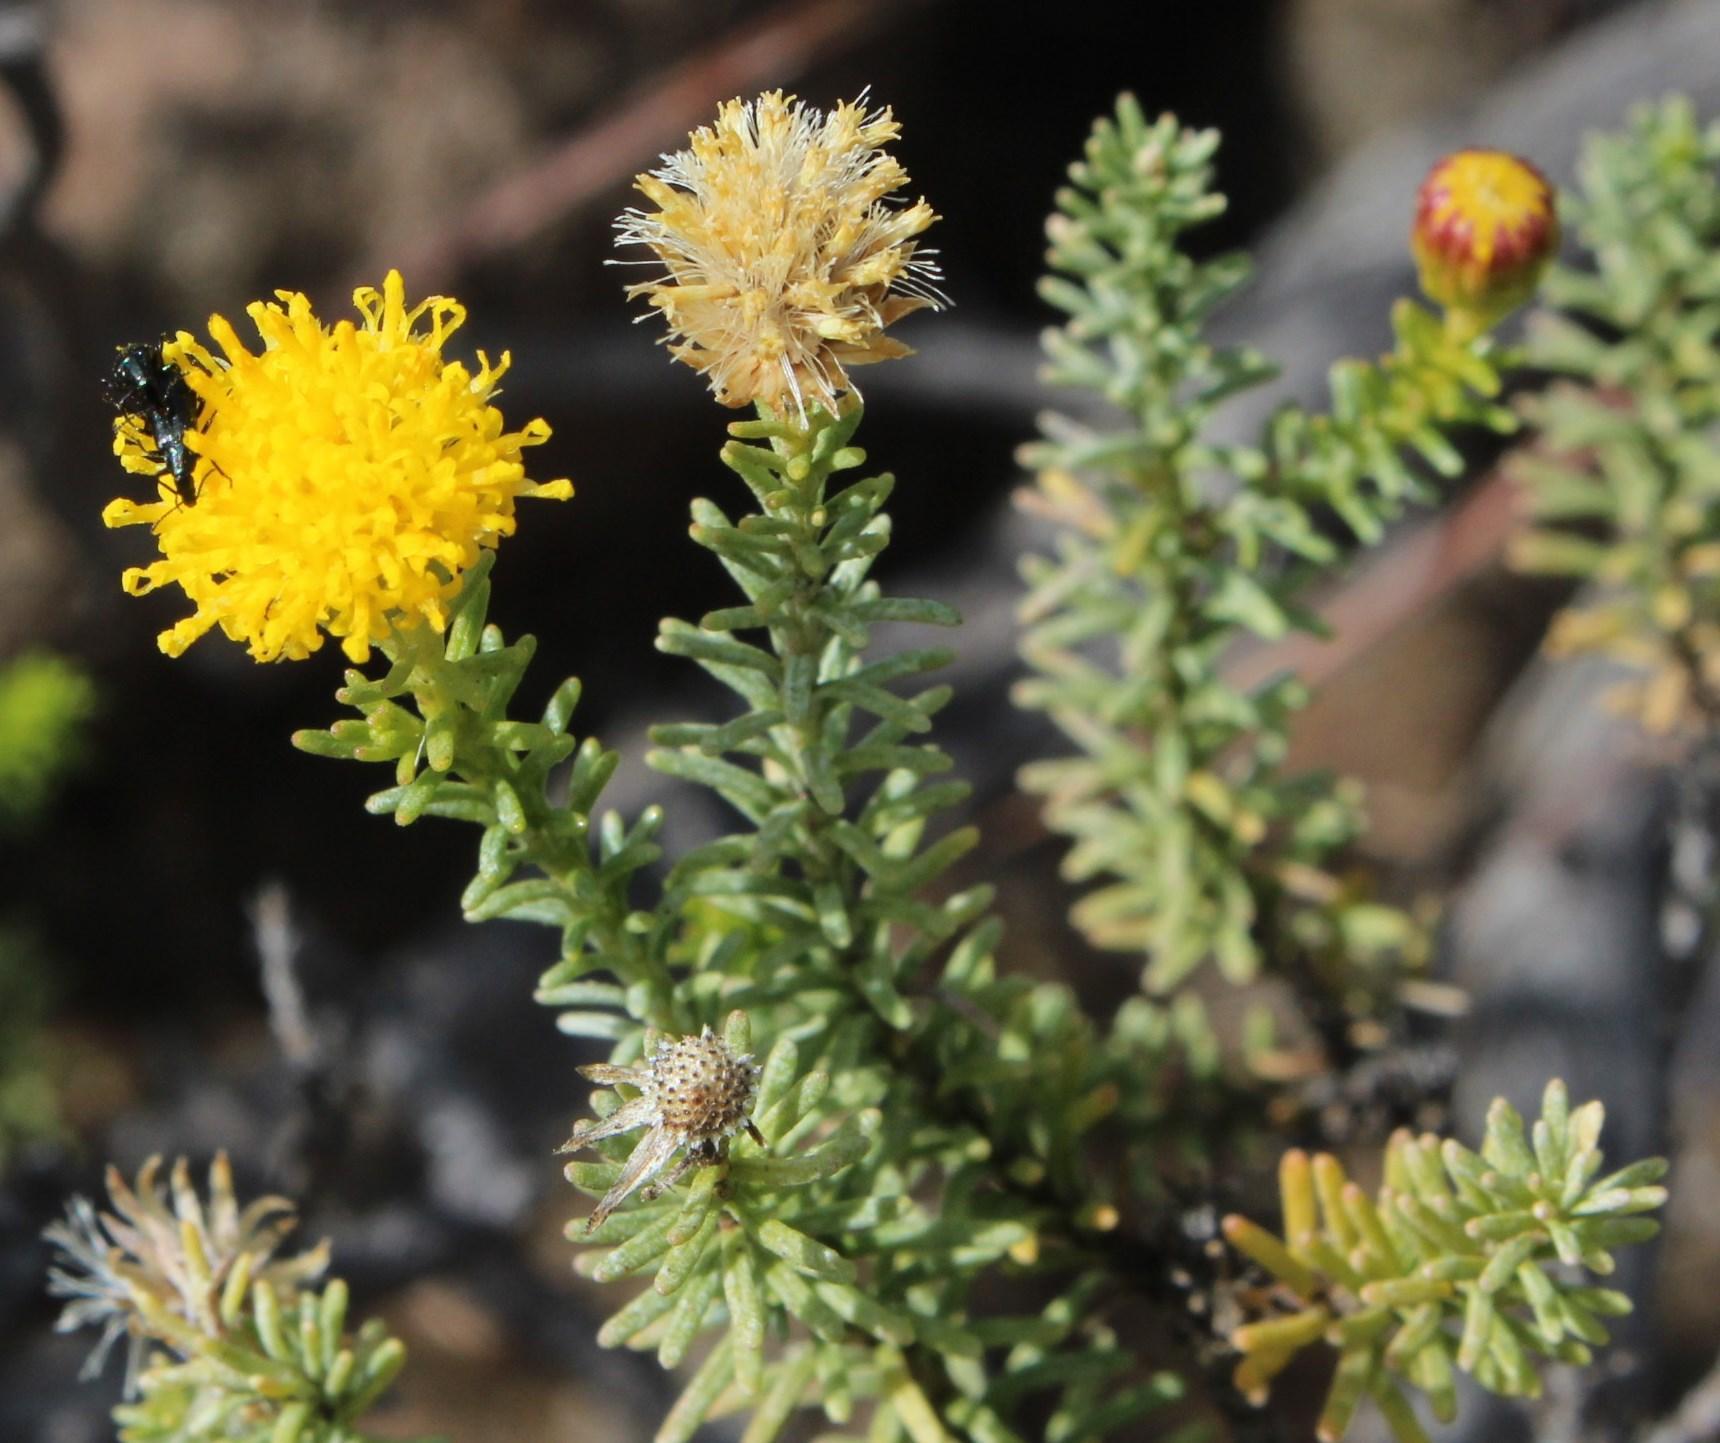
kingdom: Plantae
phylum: Tracheophyta
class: Magnoliopsida
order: Asterales
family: Asteraceae
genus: Chrysocoma
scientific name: Chrysocoma ciliata
